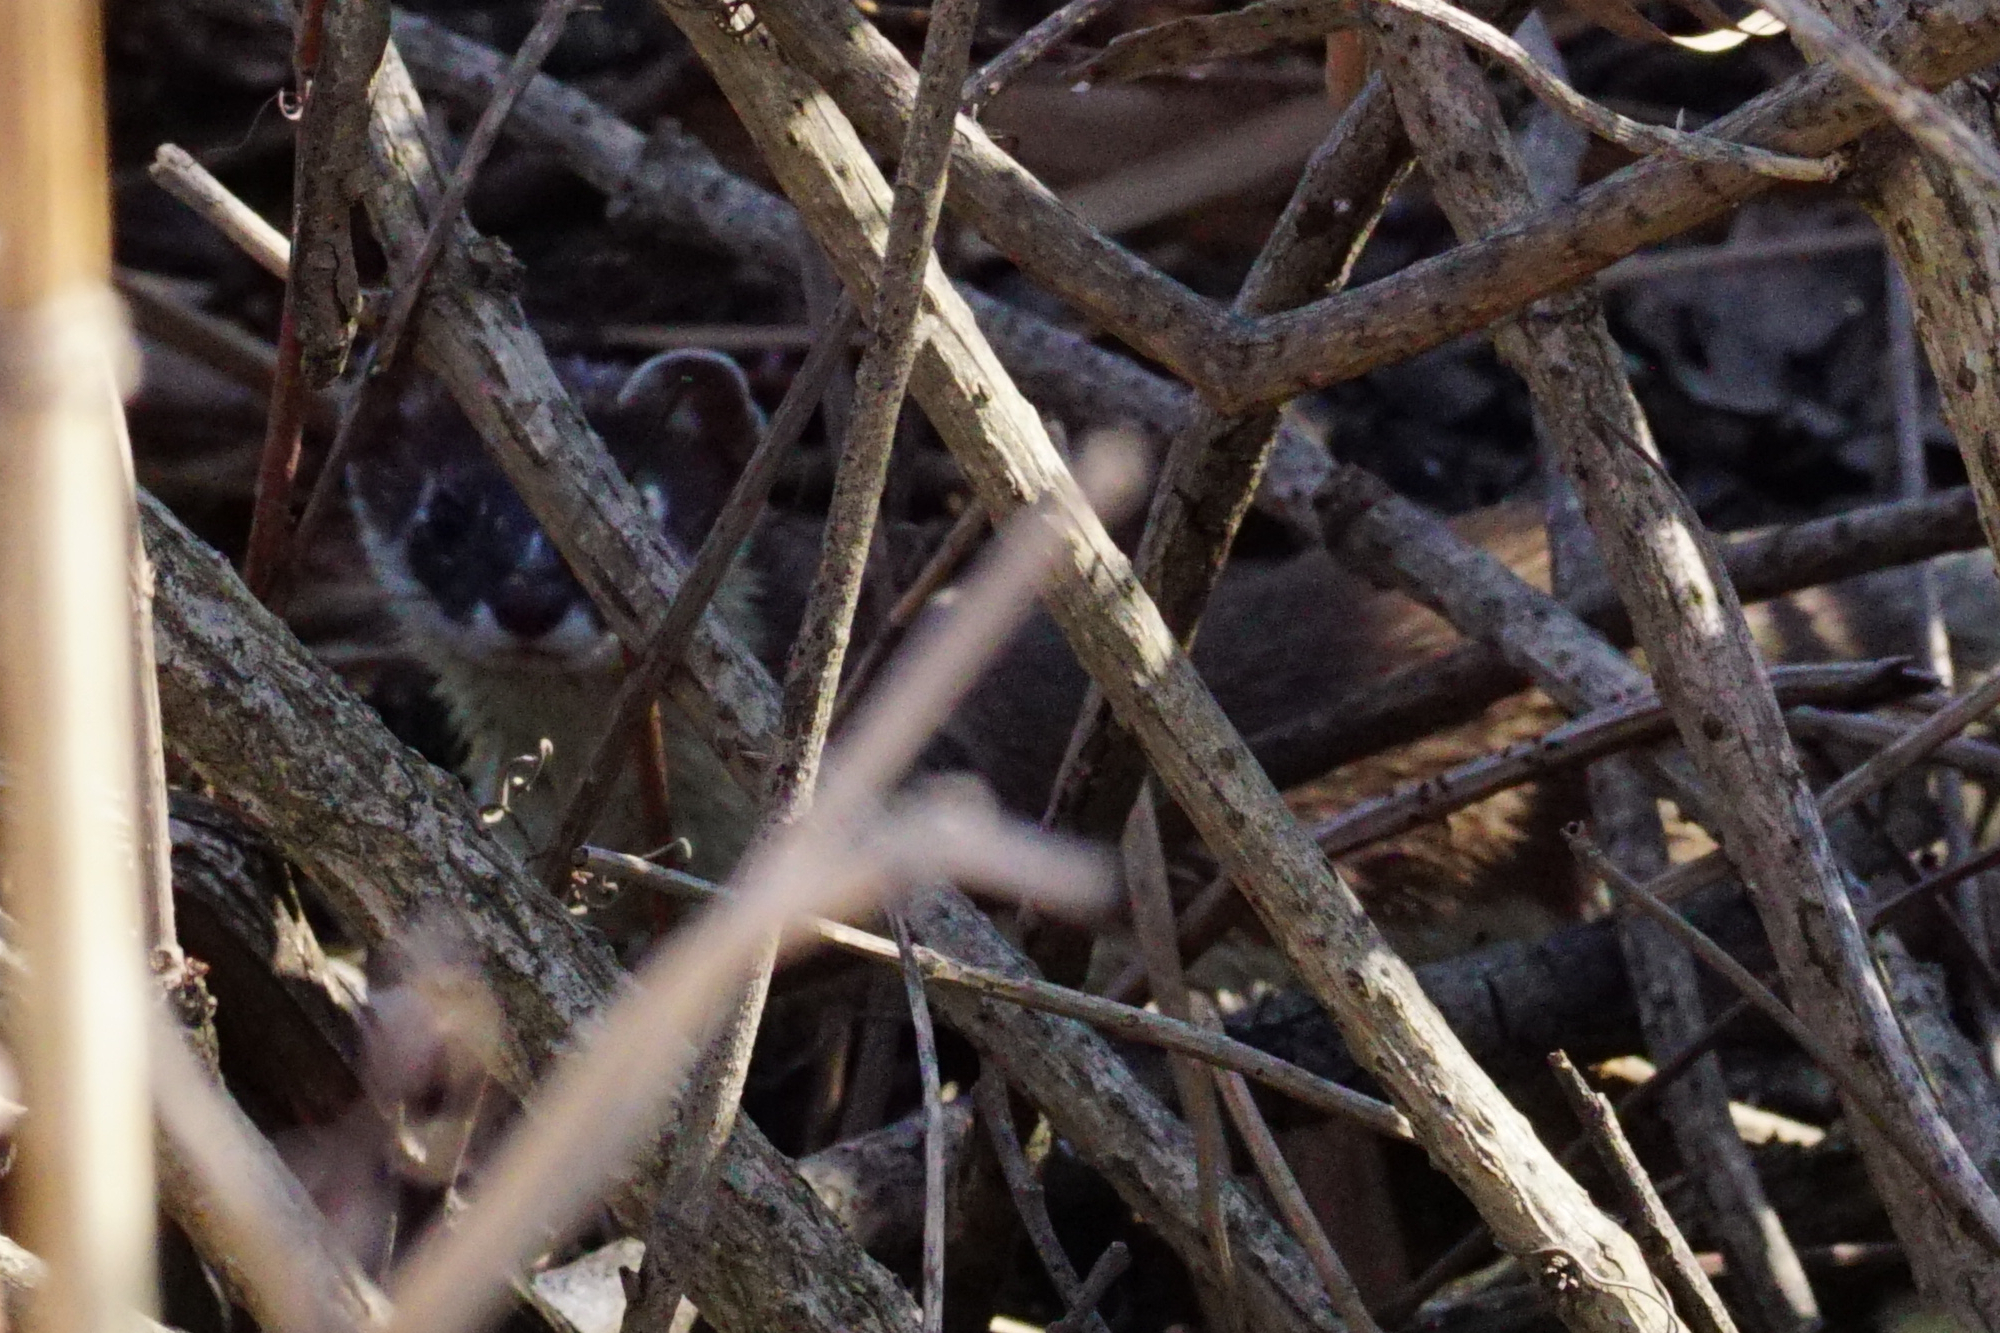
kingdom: Animalia
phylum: Chordata
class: Mammalia
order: Carnivora
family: Mustelidae
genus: Mustela
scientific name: Mustela erminea
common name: Stoat
